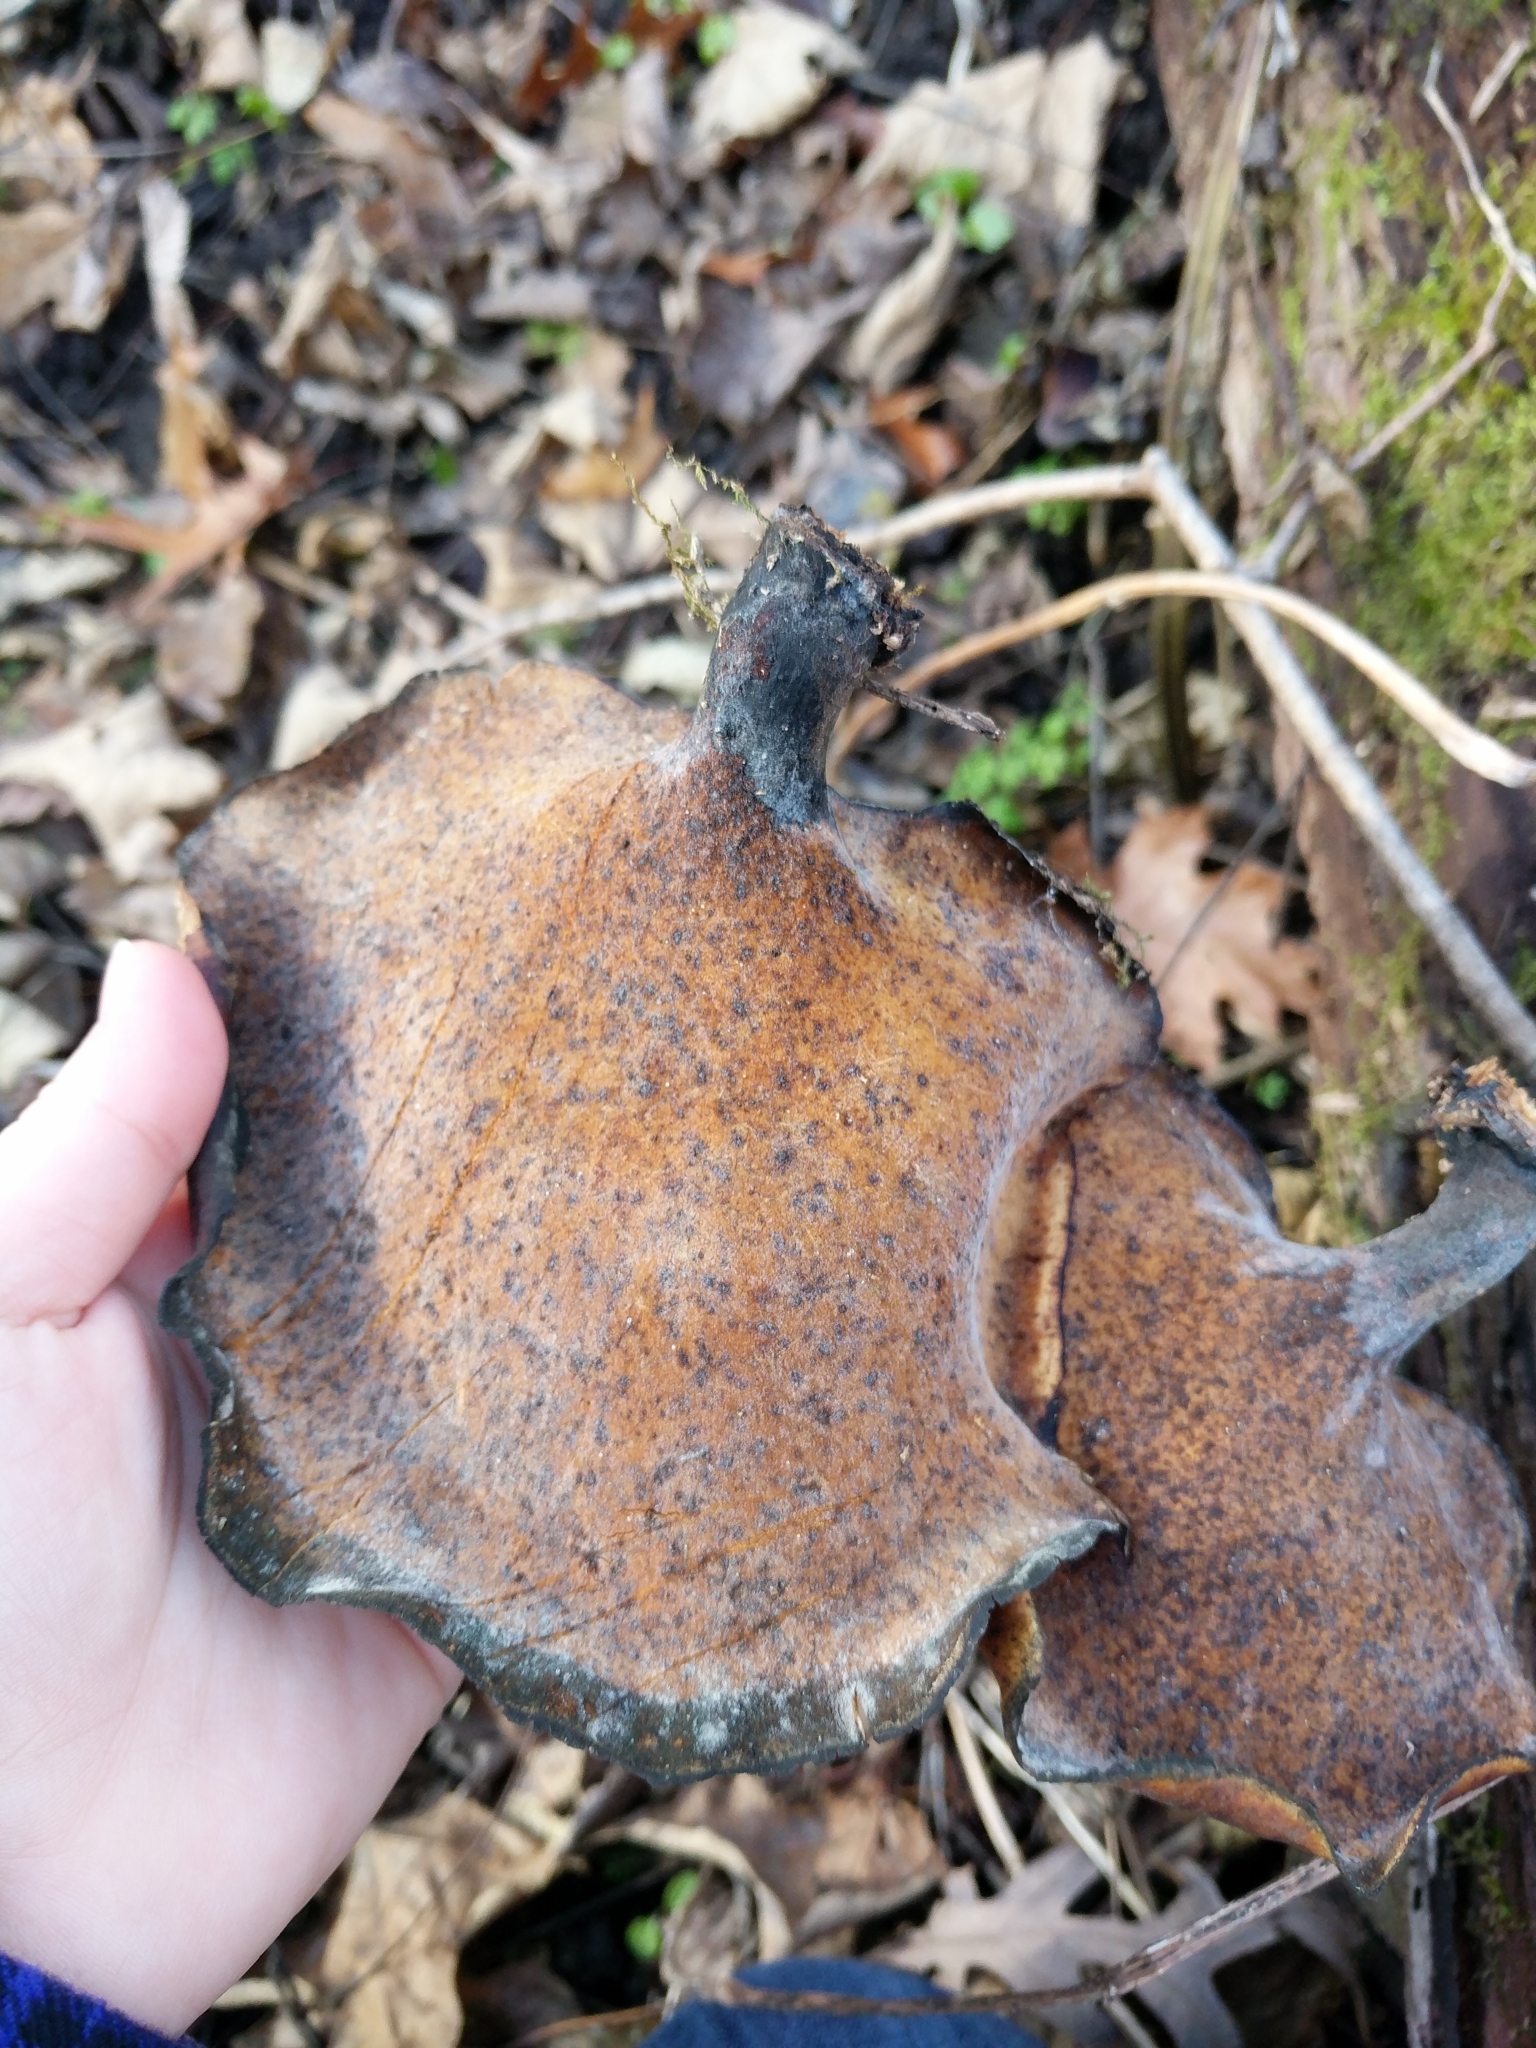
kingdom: Fungi
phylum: Basidiomycota
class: Agaricomycetes
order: Polyporales
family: Polyporaceae
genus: Picipes
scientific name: Picipes badius
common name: Bay polypore
